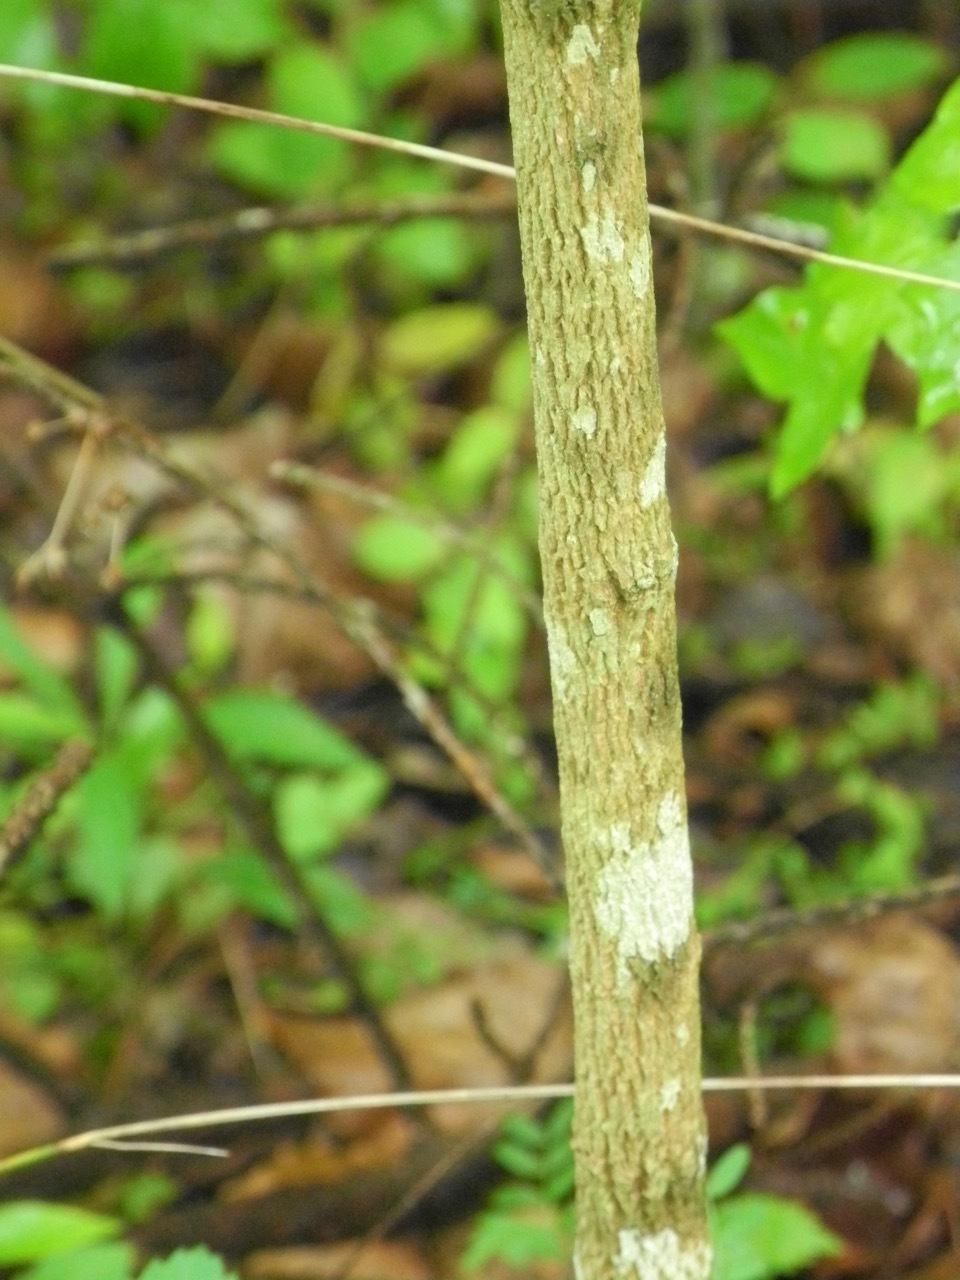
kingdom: Plantae
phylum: Tracheophyta
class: Magnoliopsida
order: Lamiales
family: Oleaceae
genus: Fraxinus
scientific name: Fraxinus americana
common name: White ash
